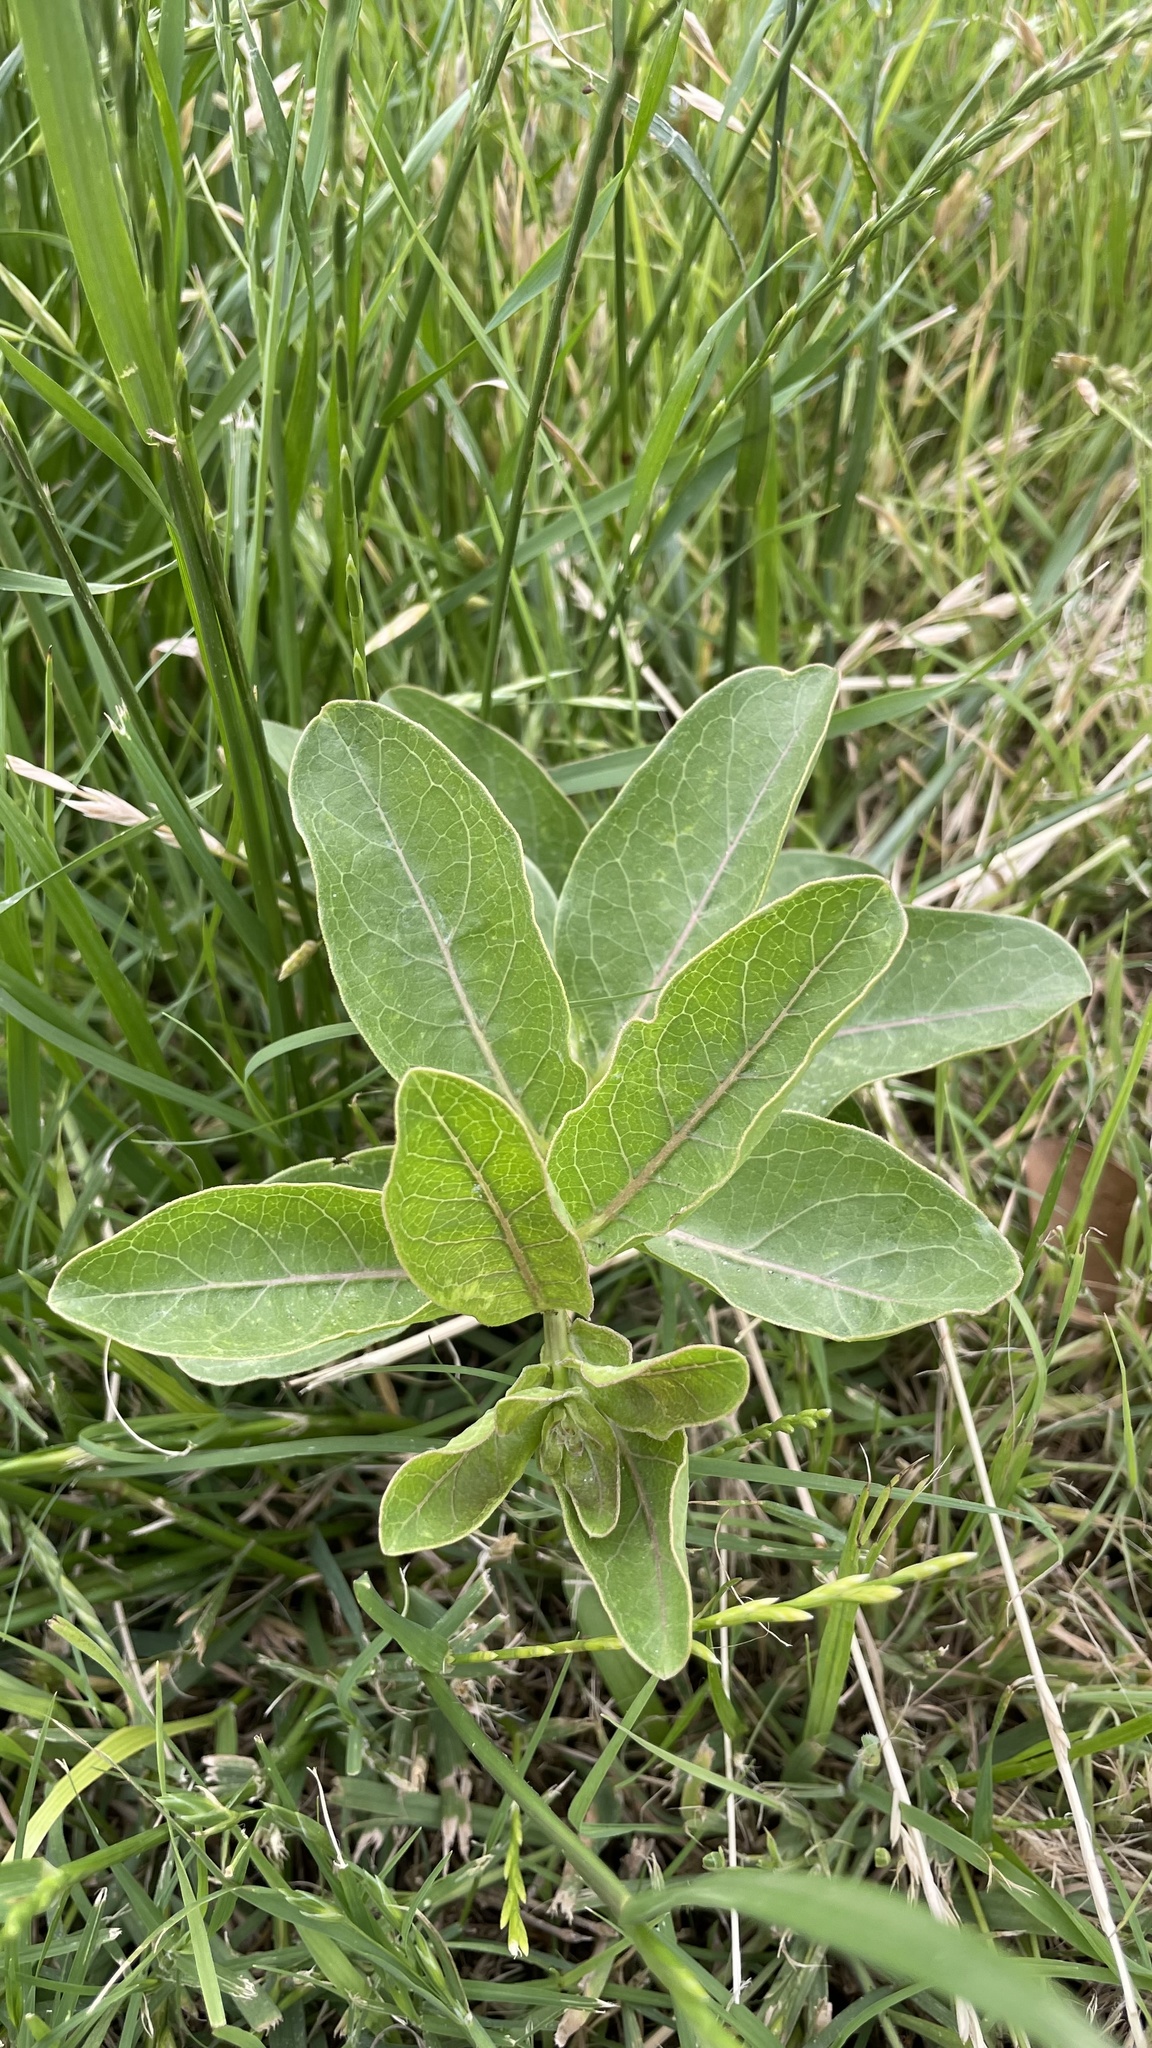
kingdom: Plantae
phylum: Tracheophyta
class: Magnoliopsida
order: Gentianales
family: Apocynaceae
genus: Asclepias
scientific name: Asclepias viridis
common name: Antelope-horns
